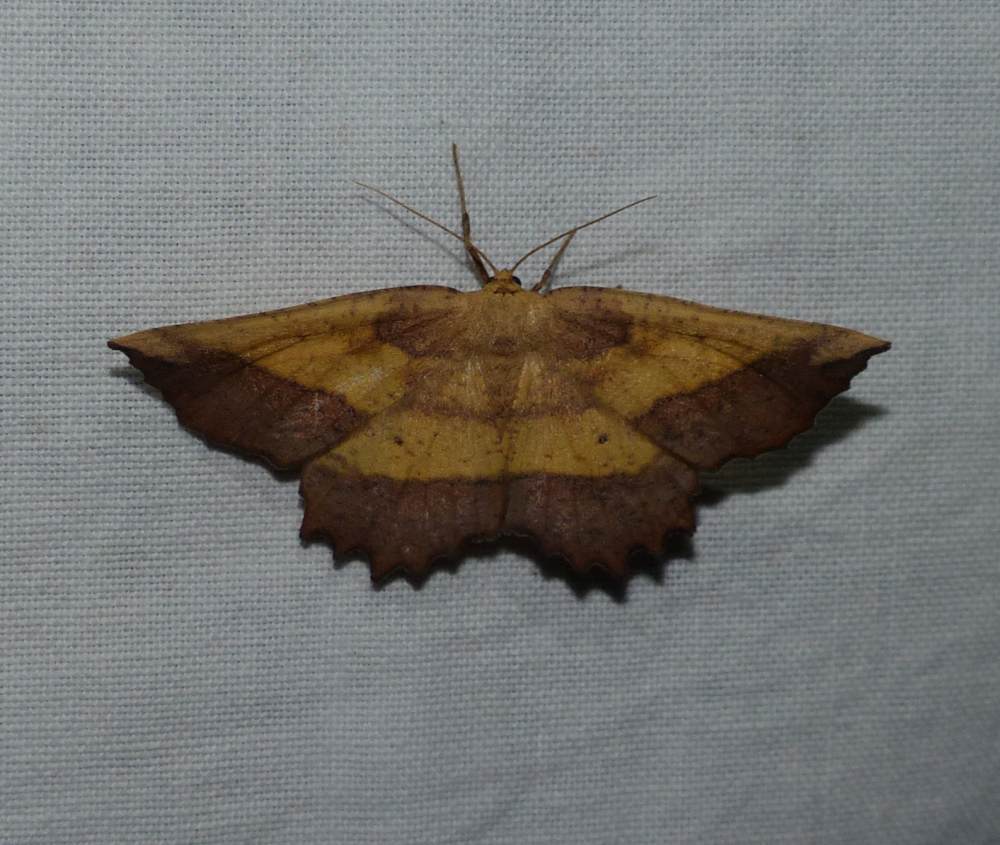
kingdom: Animalia
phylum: Arthropoda
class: Insecta
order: Lepidoptera
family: Geometridae
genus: Euchlaena
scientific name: Euchlaena serrata
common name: Saw wing
